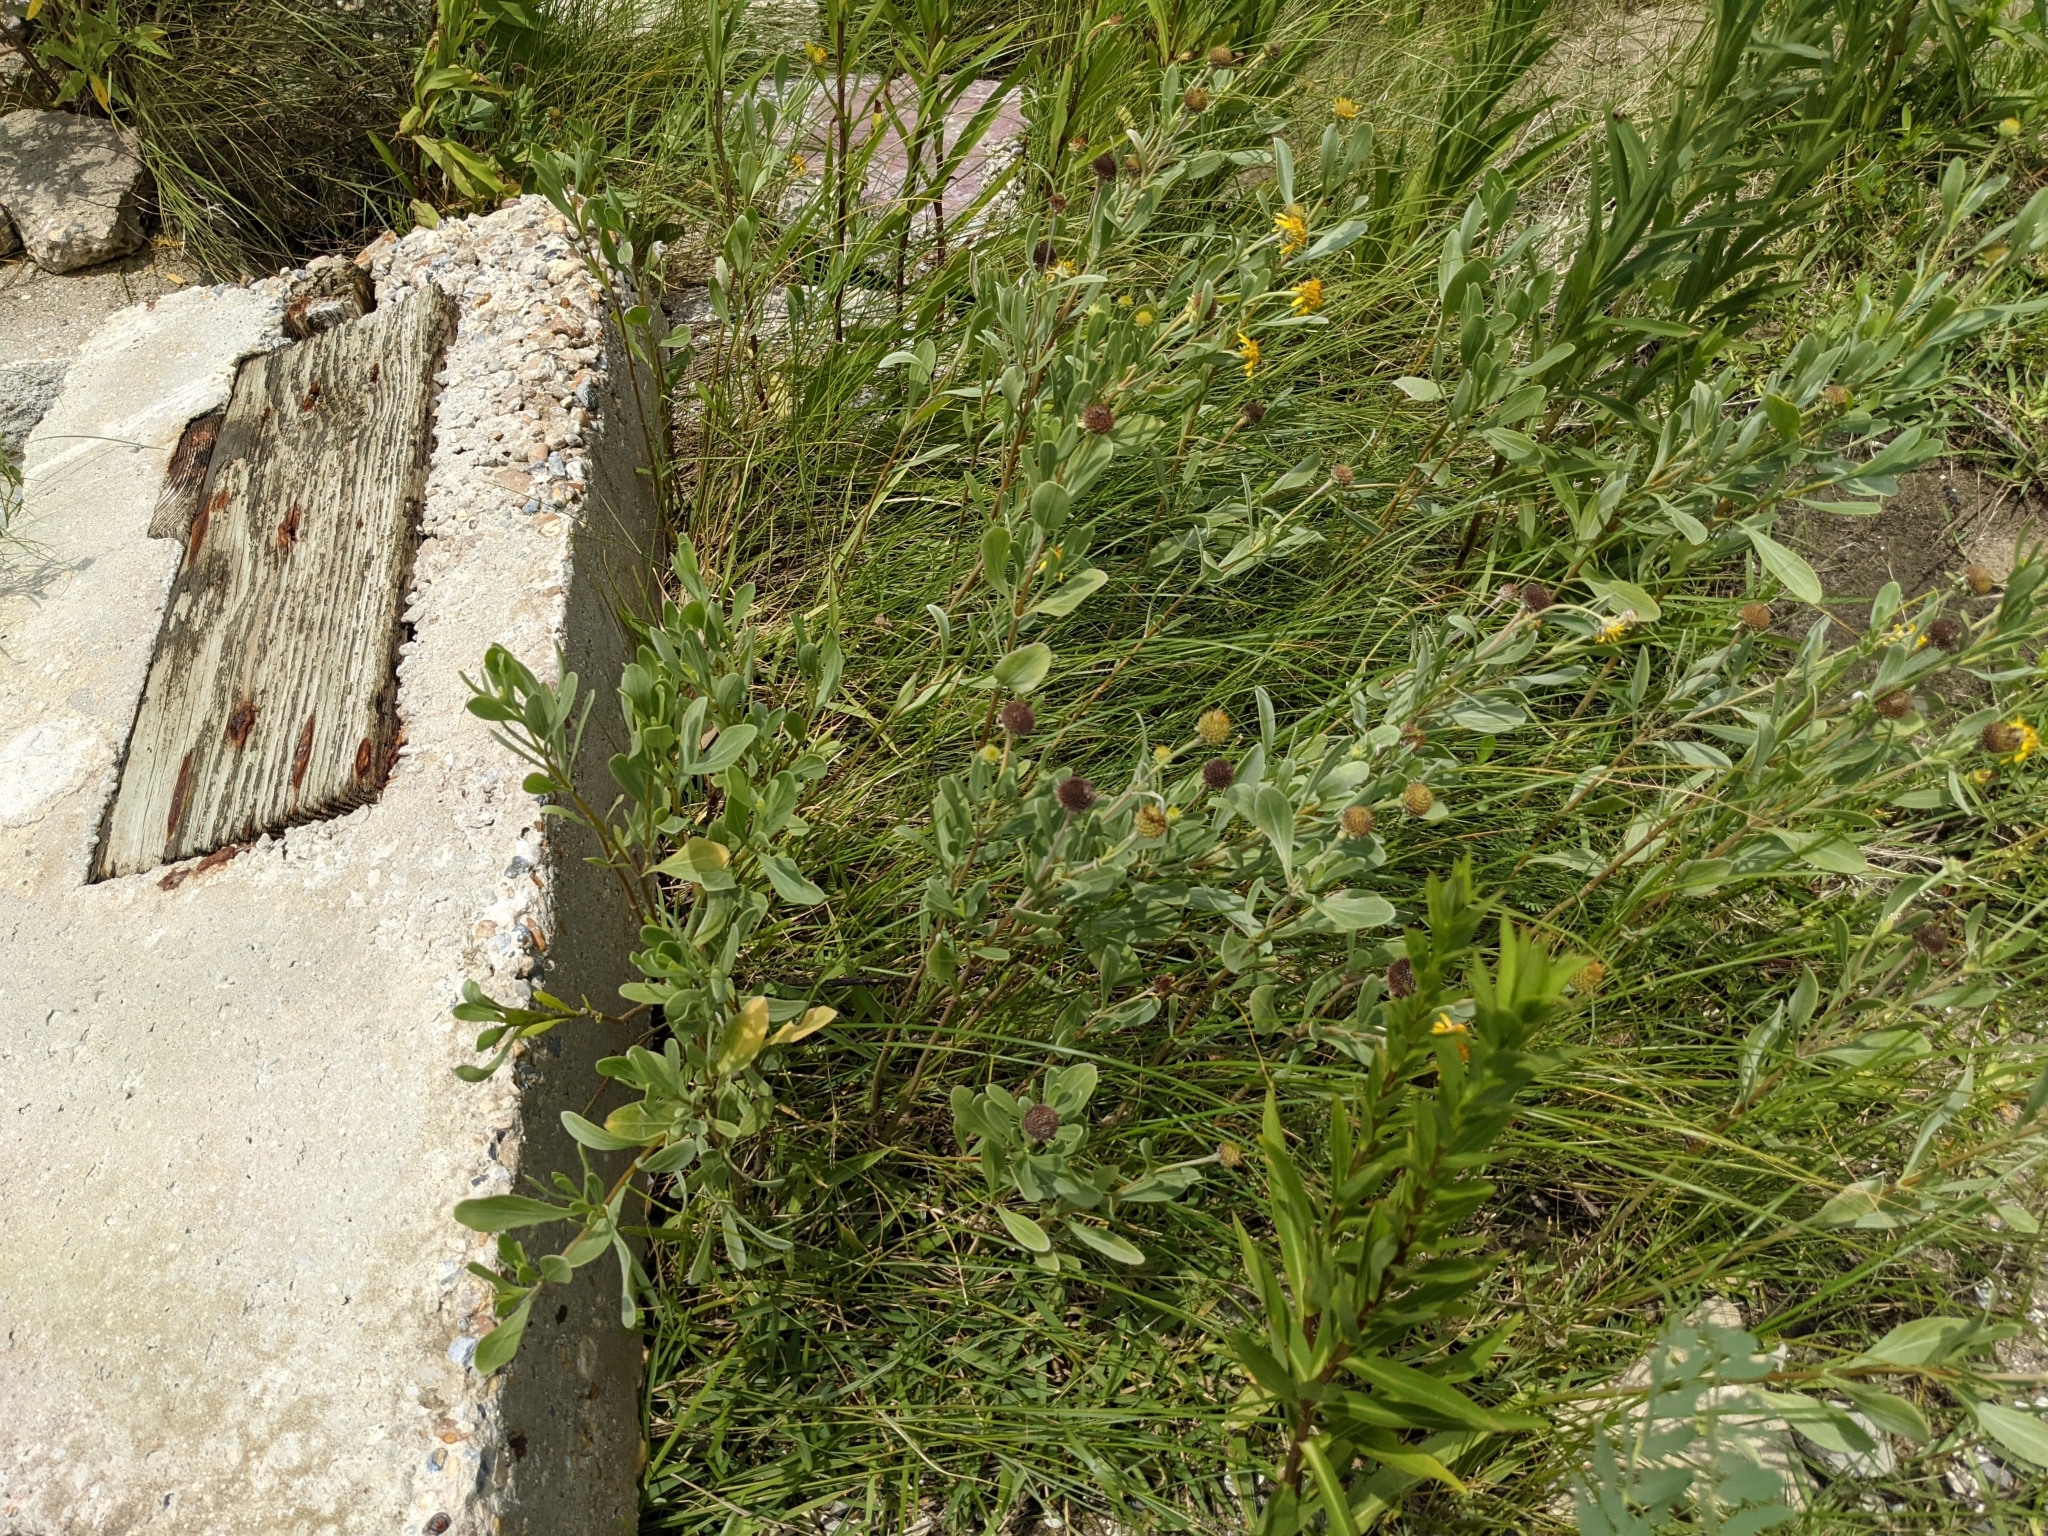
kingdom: Plantae
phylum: Tracheophyta
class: Magnoliopsida
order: Asterales
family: Asteraceae
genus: Borrichia
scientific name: Borrichia frutescens
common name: Sea oxeye
